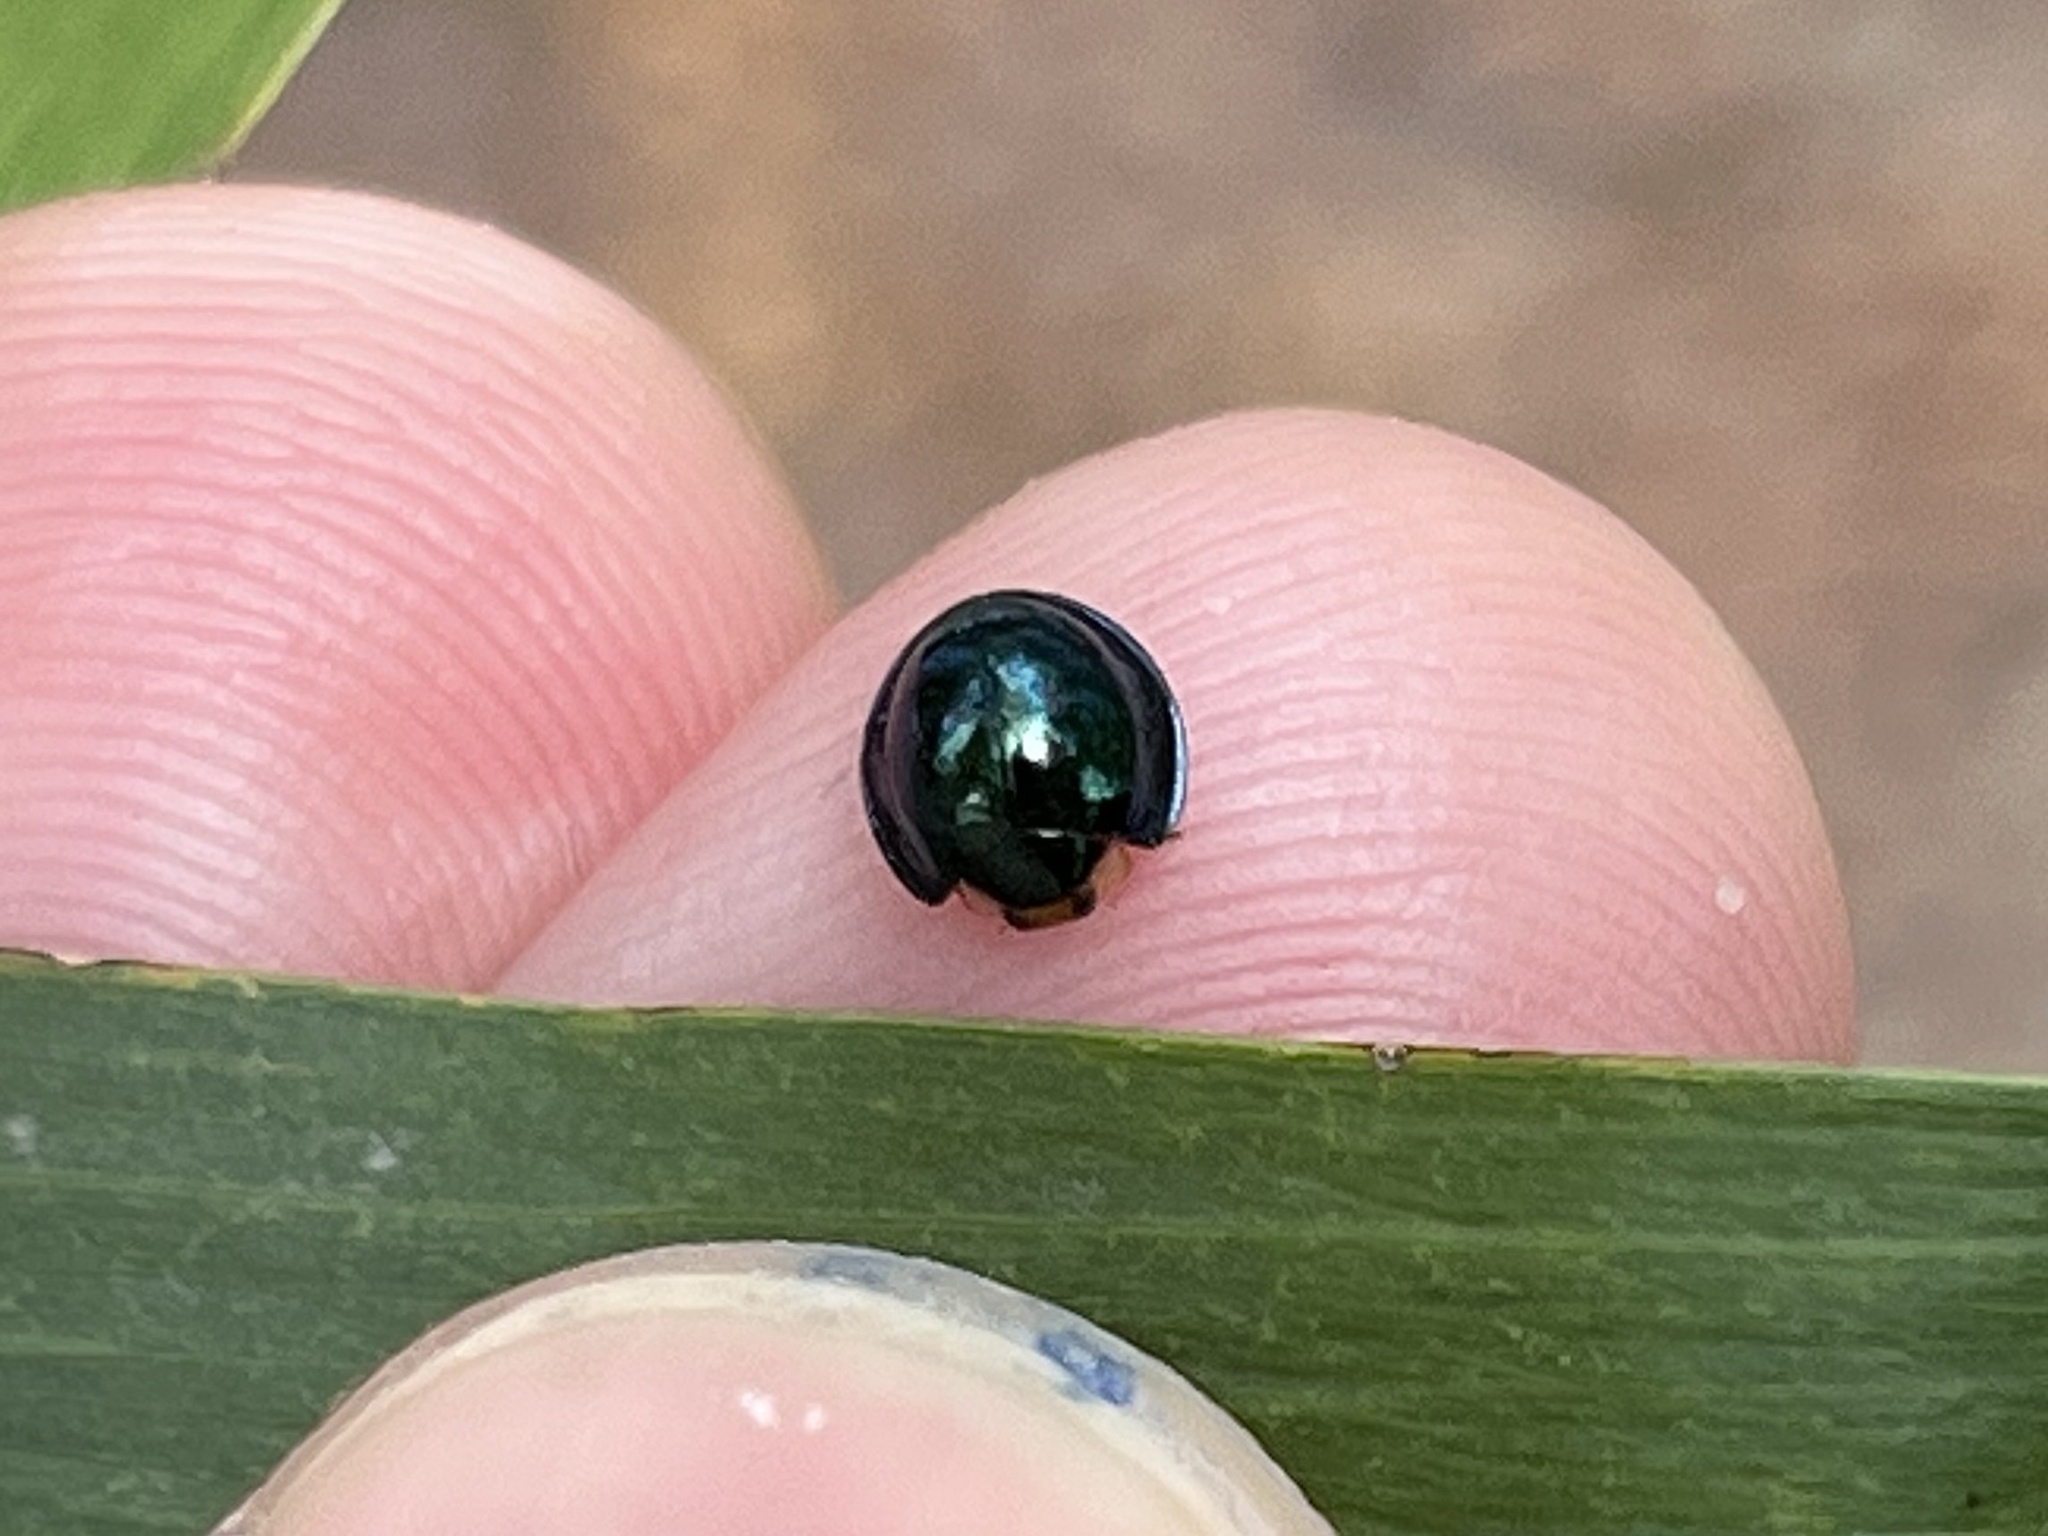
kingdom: Animalia
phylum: Arthropoda
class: Insecta
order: Coleoptera
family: Coccinellidae
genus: Halmus
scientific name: Halmus chalybeus
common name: Steel blue ladybird beetle
